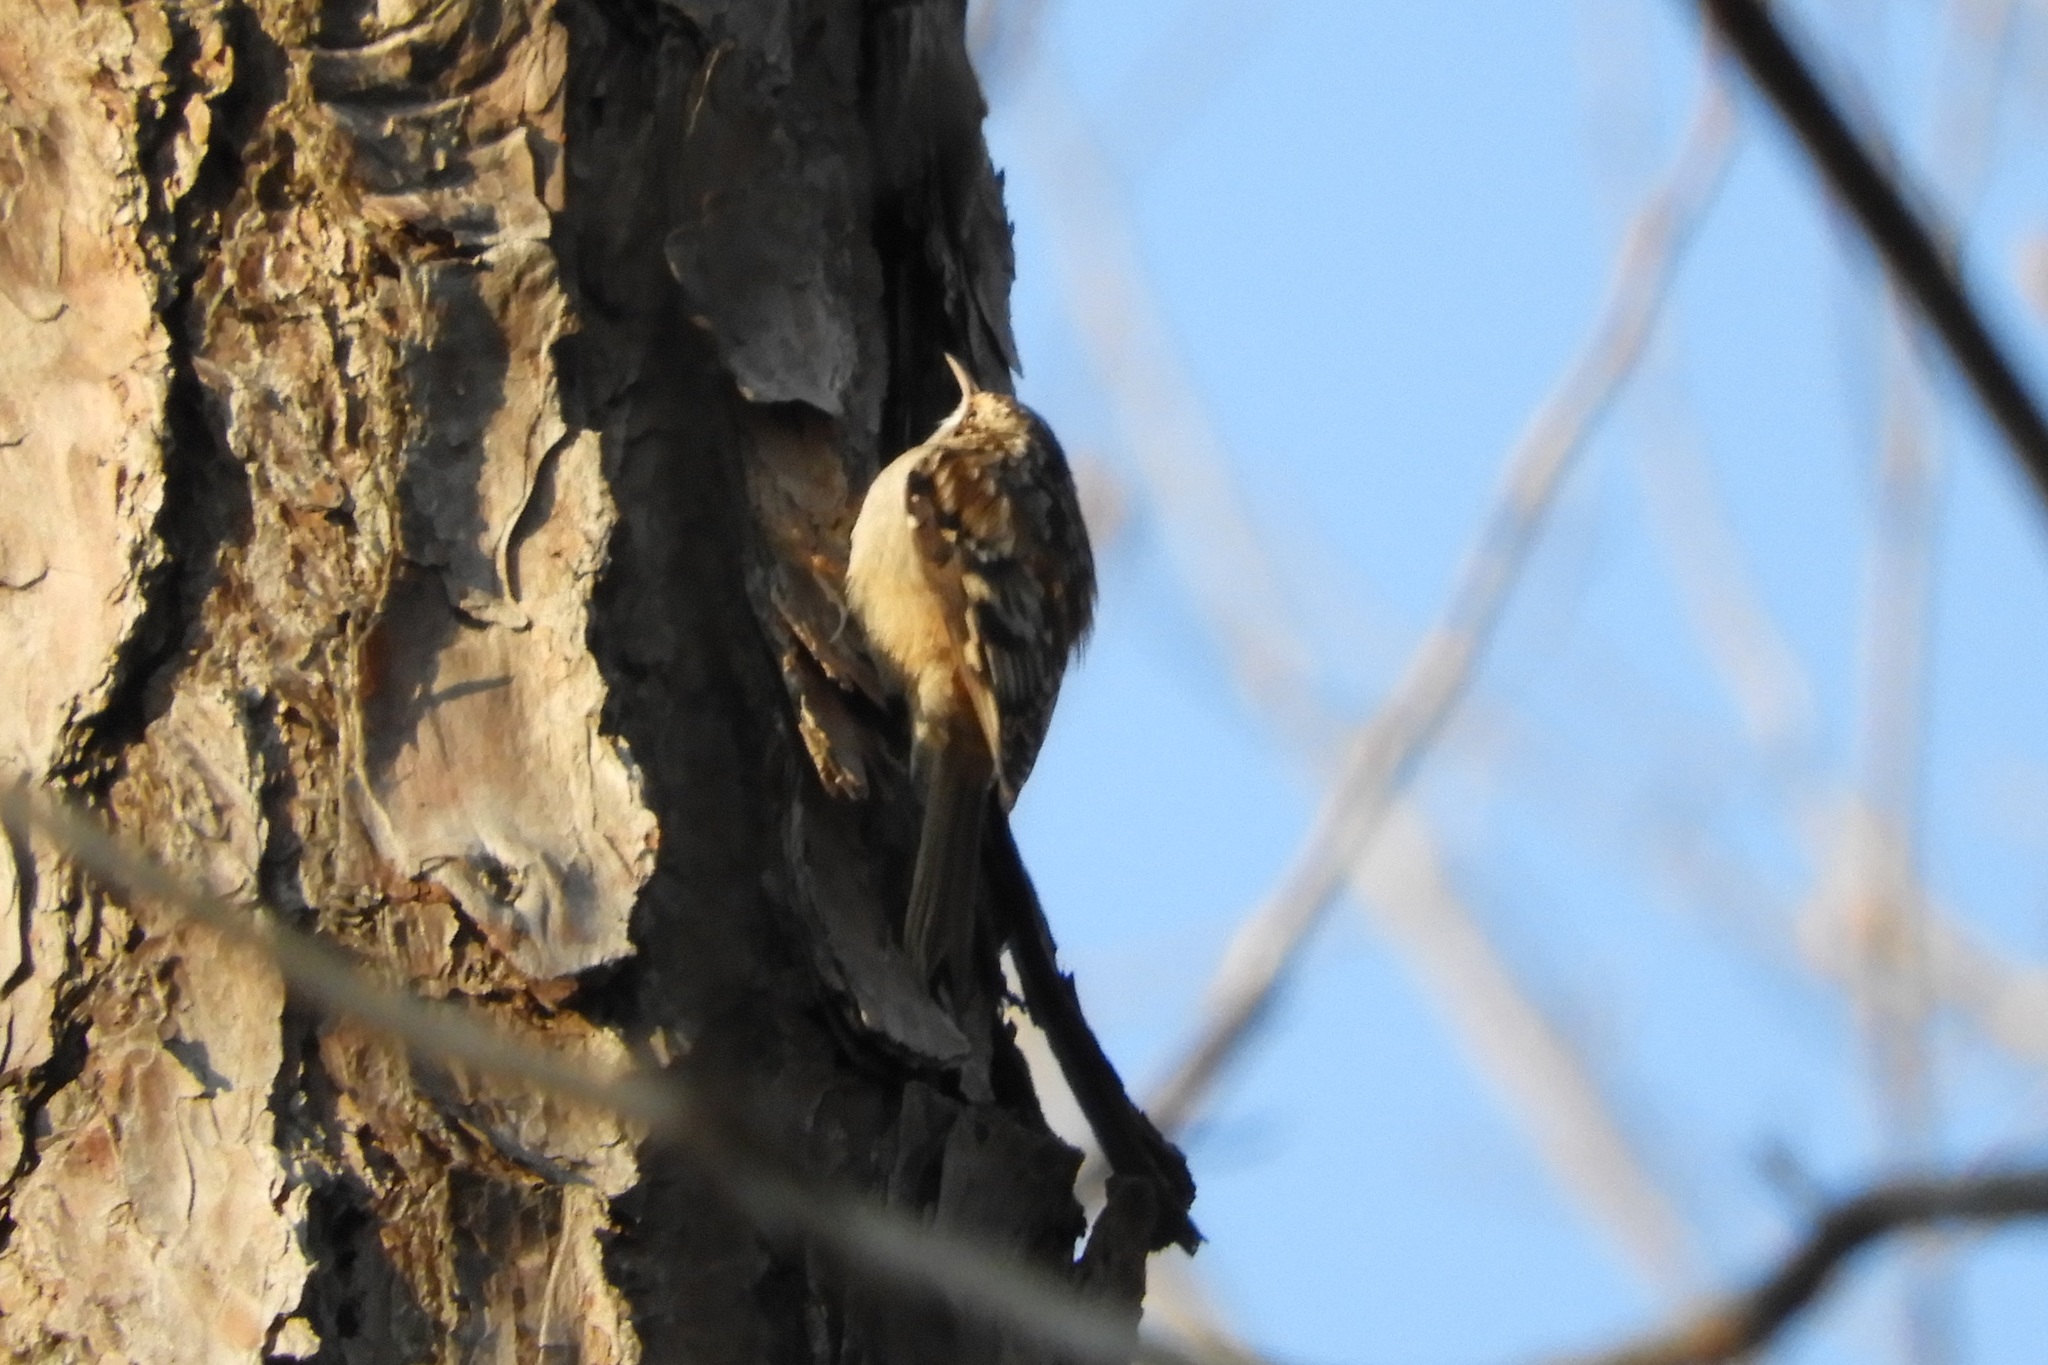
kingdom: Animalia
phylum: Chordata
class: Aves
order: Passeriformes
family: Certhiidae
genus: Certhia
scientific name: Certhia americana
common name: Brown creeper
